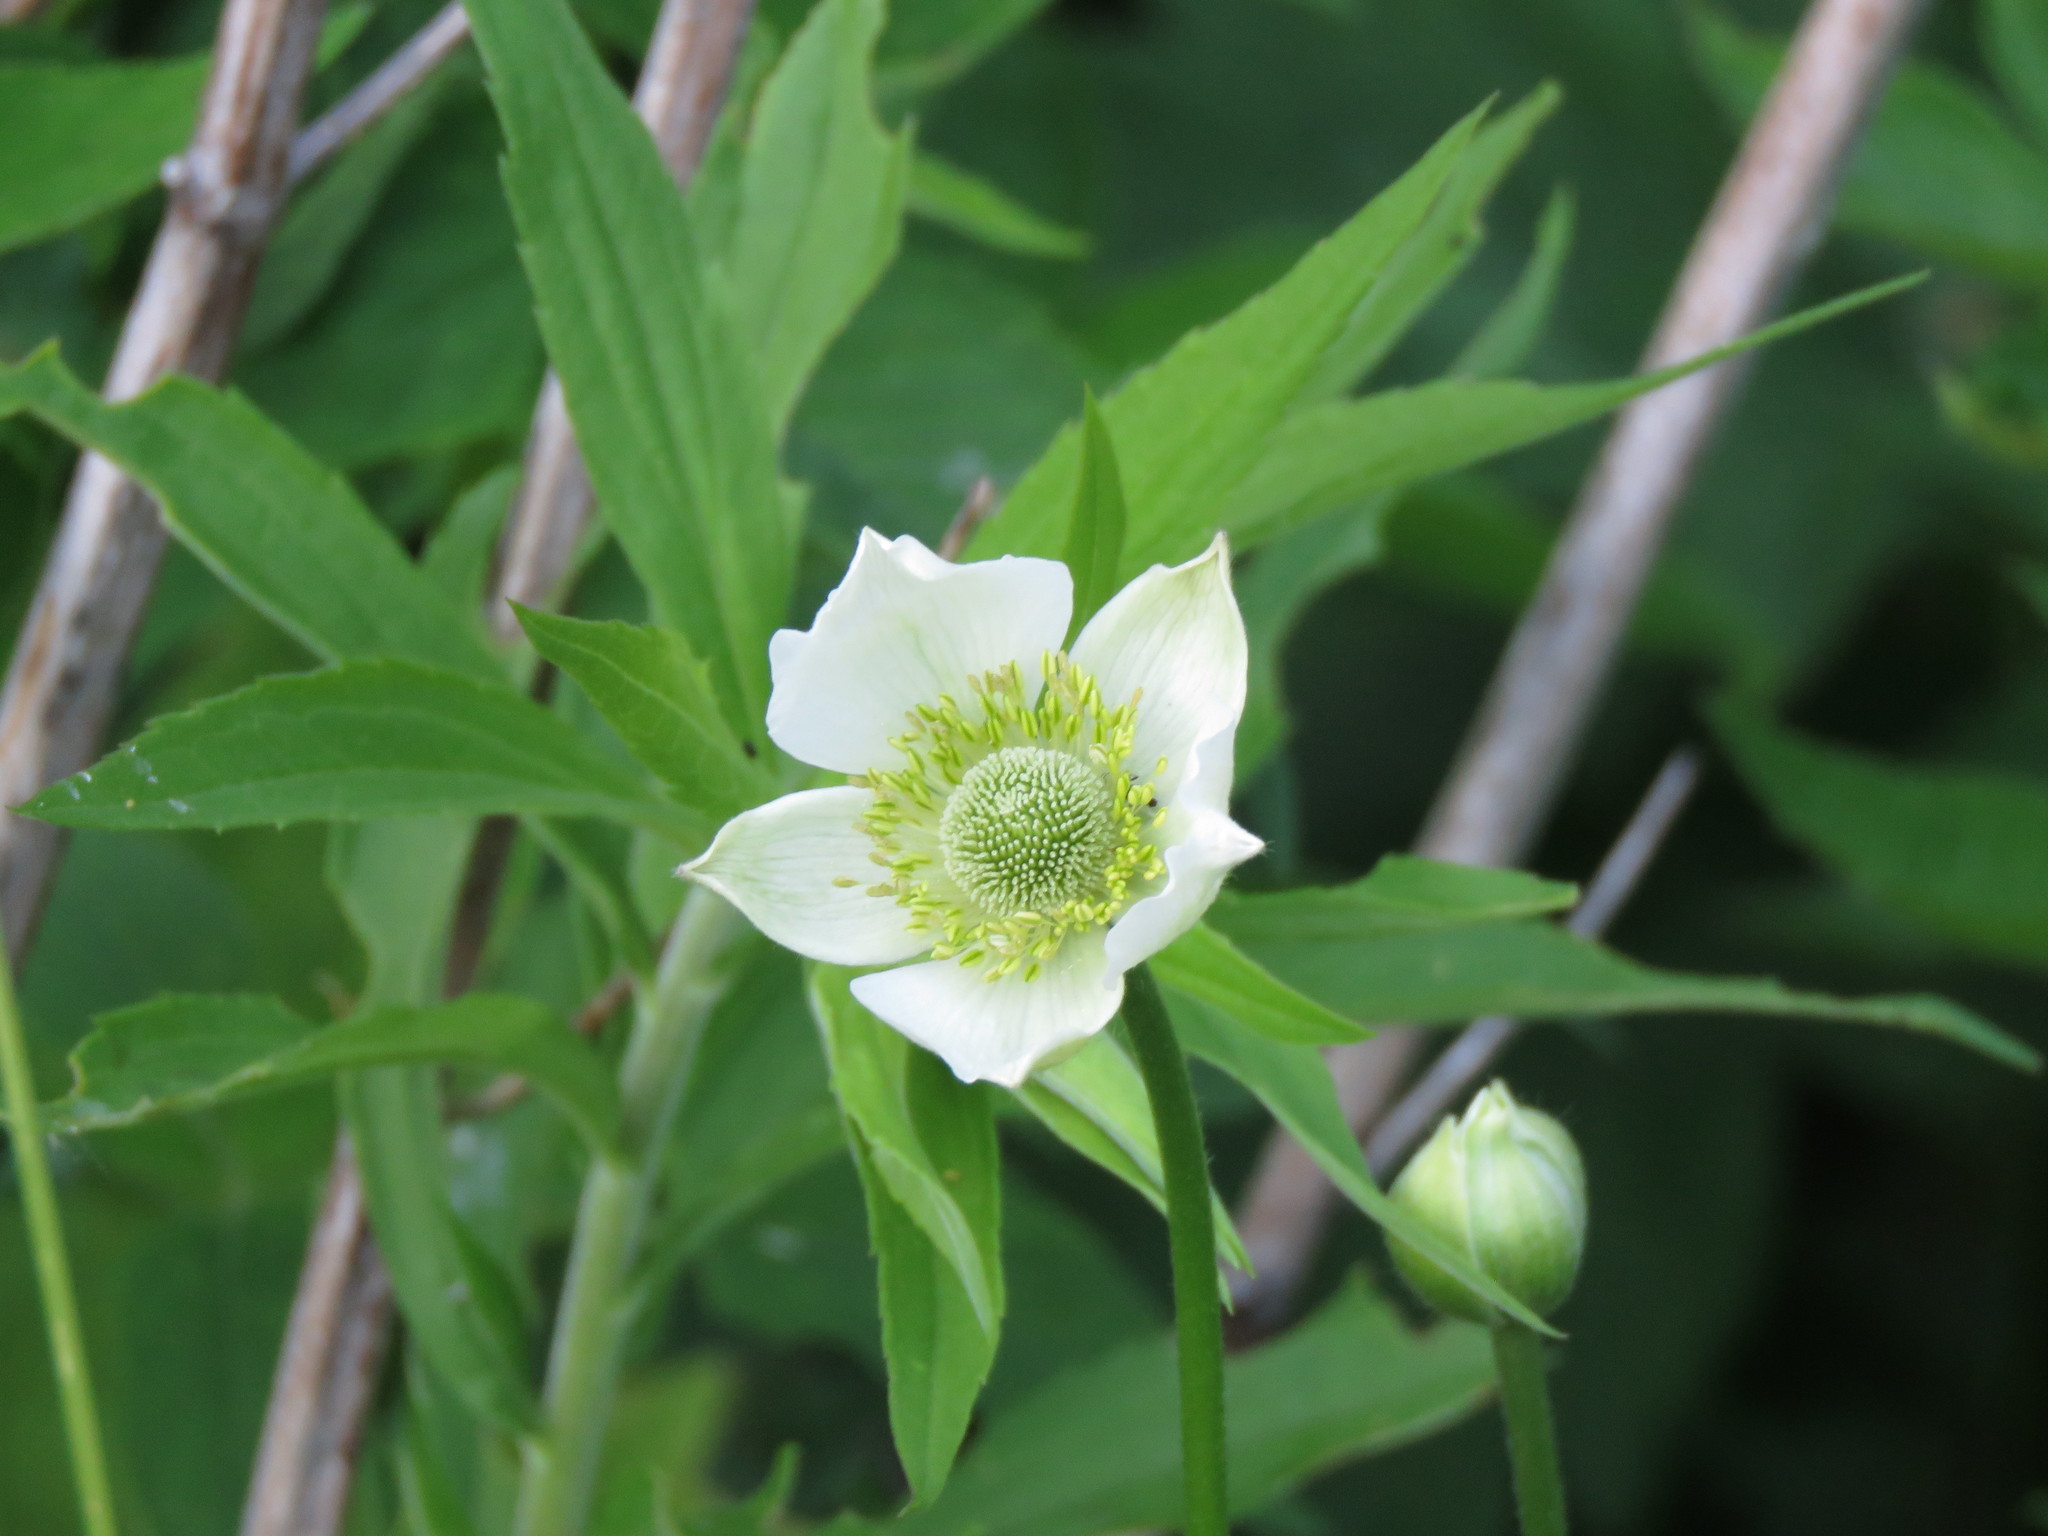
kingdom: Plantae
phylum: Tracheophyta
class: Magnoliopsida
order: Ranunculales
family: Ranunculaceae
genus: Anemone
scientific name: Anemone virginiana
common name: Tall anemone
